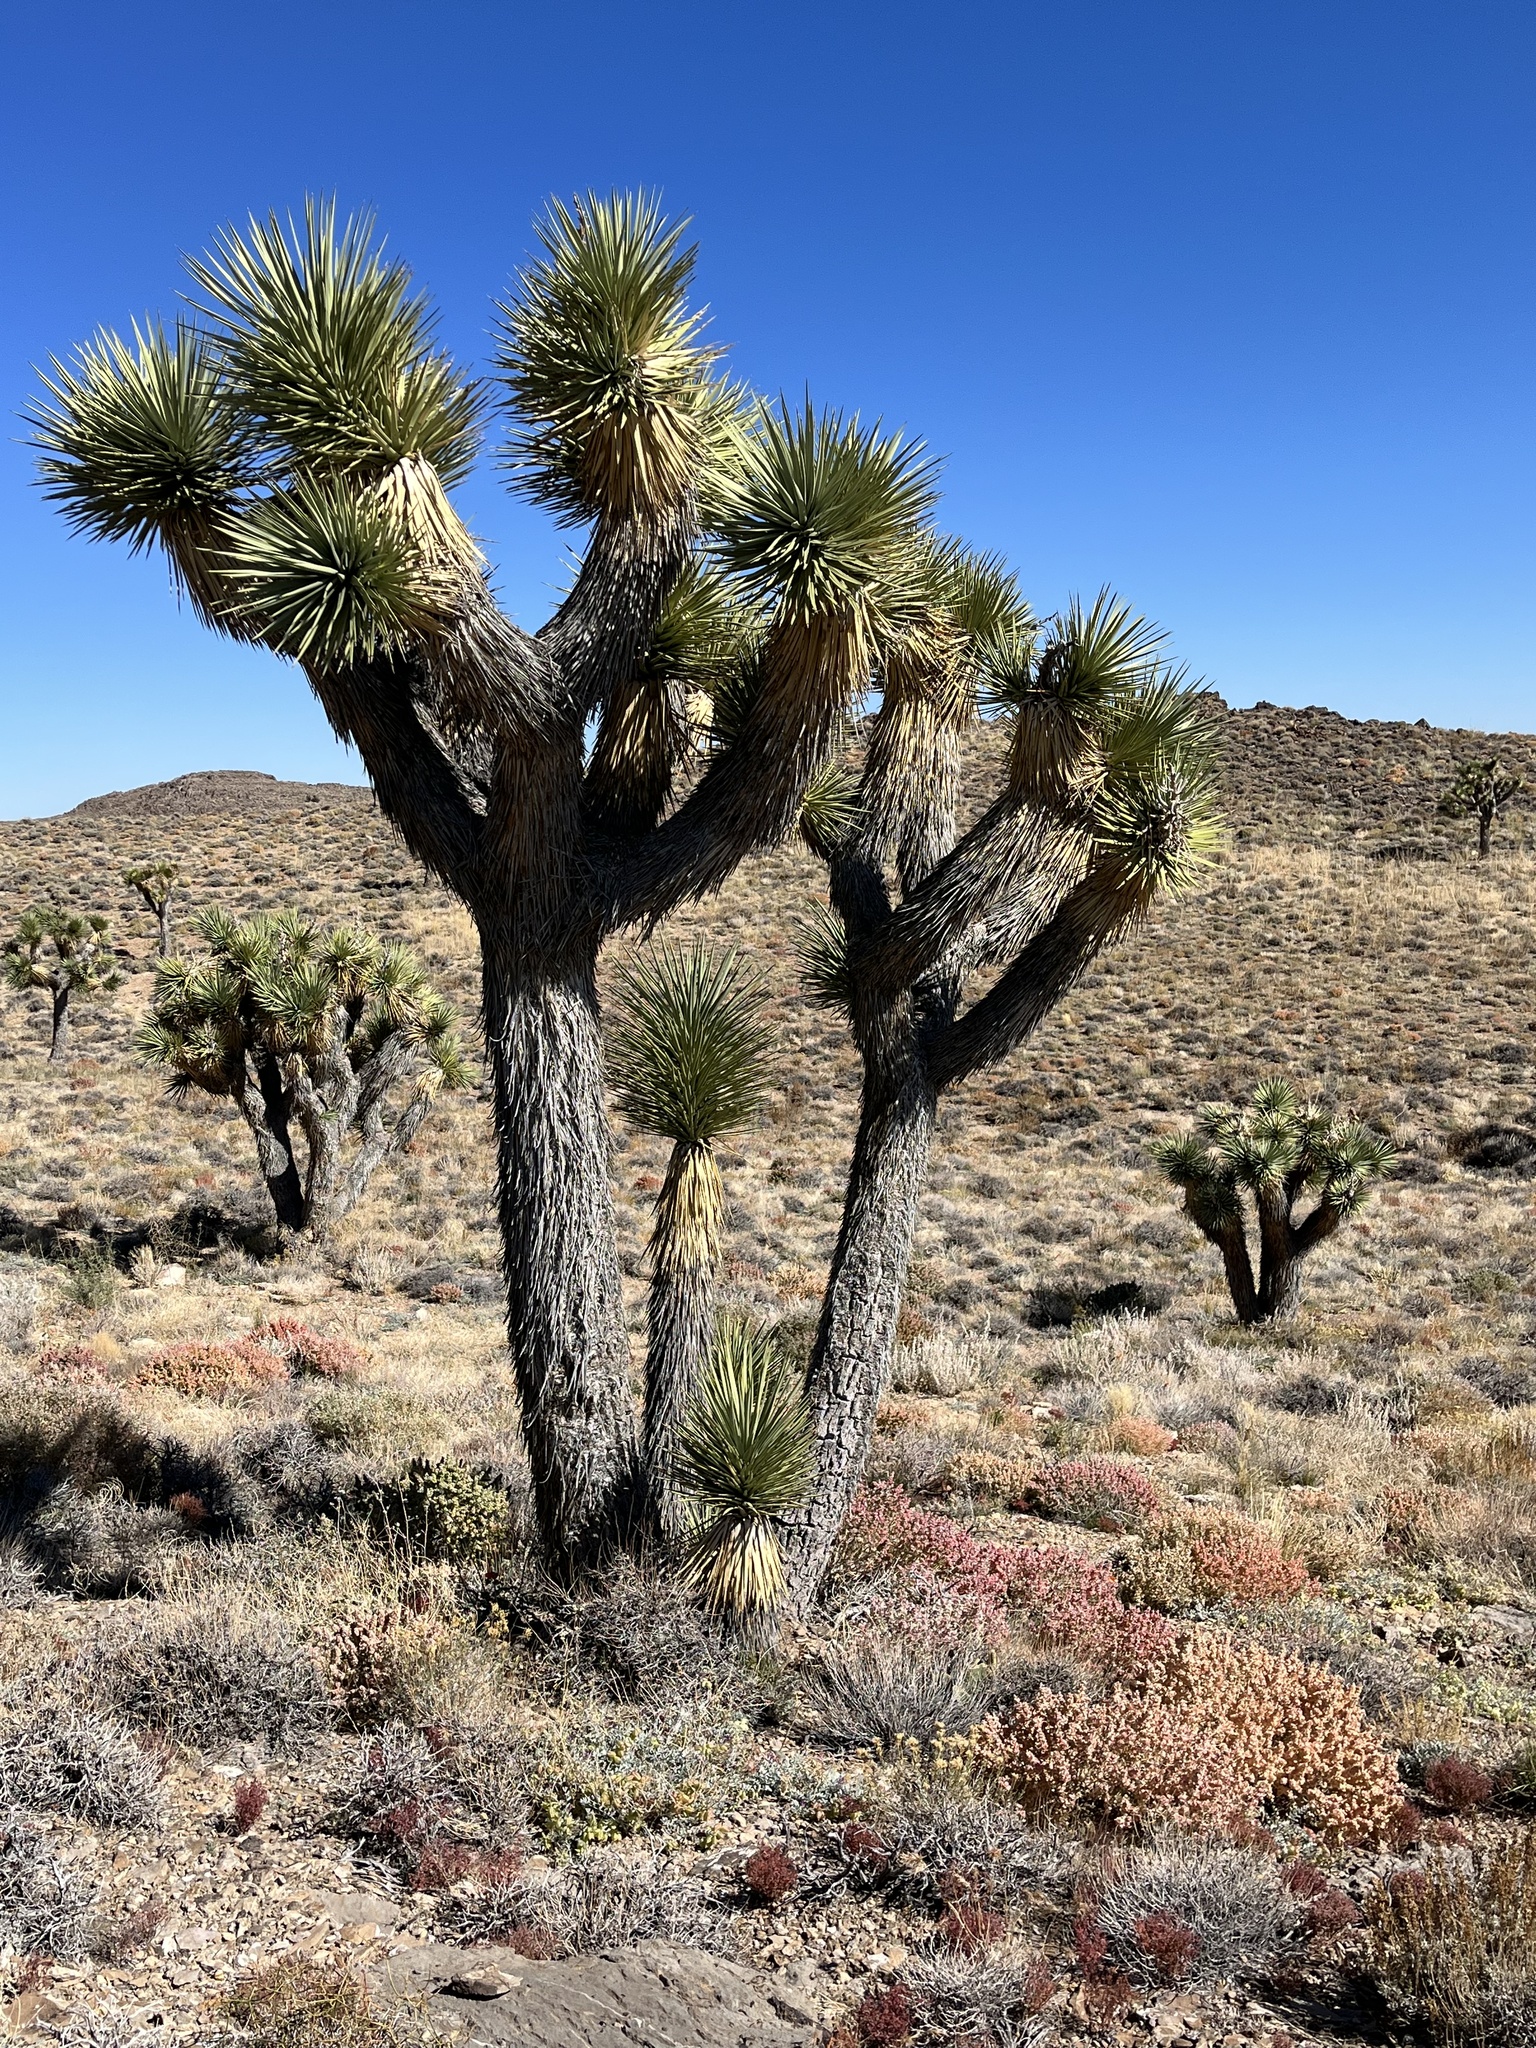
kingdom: Plantae
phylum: Tracheophyta
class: Liliopsida
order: Asparagales
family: Asparagaceae
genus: Yucca
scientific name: Yucca brevifolia
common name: Joshua tree
